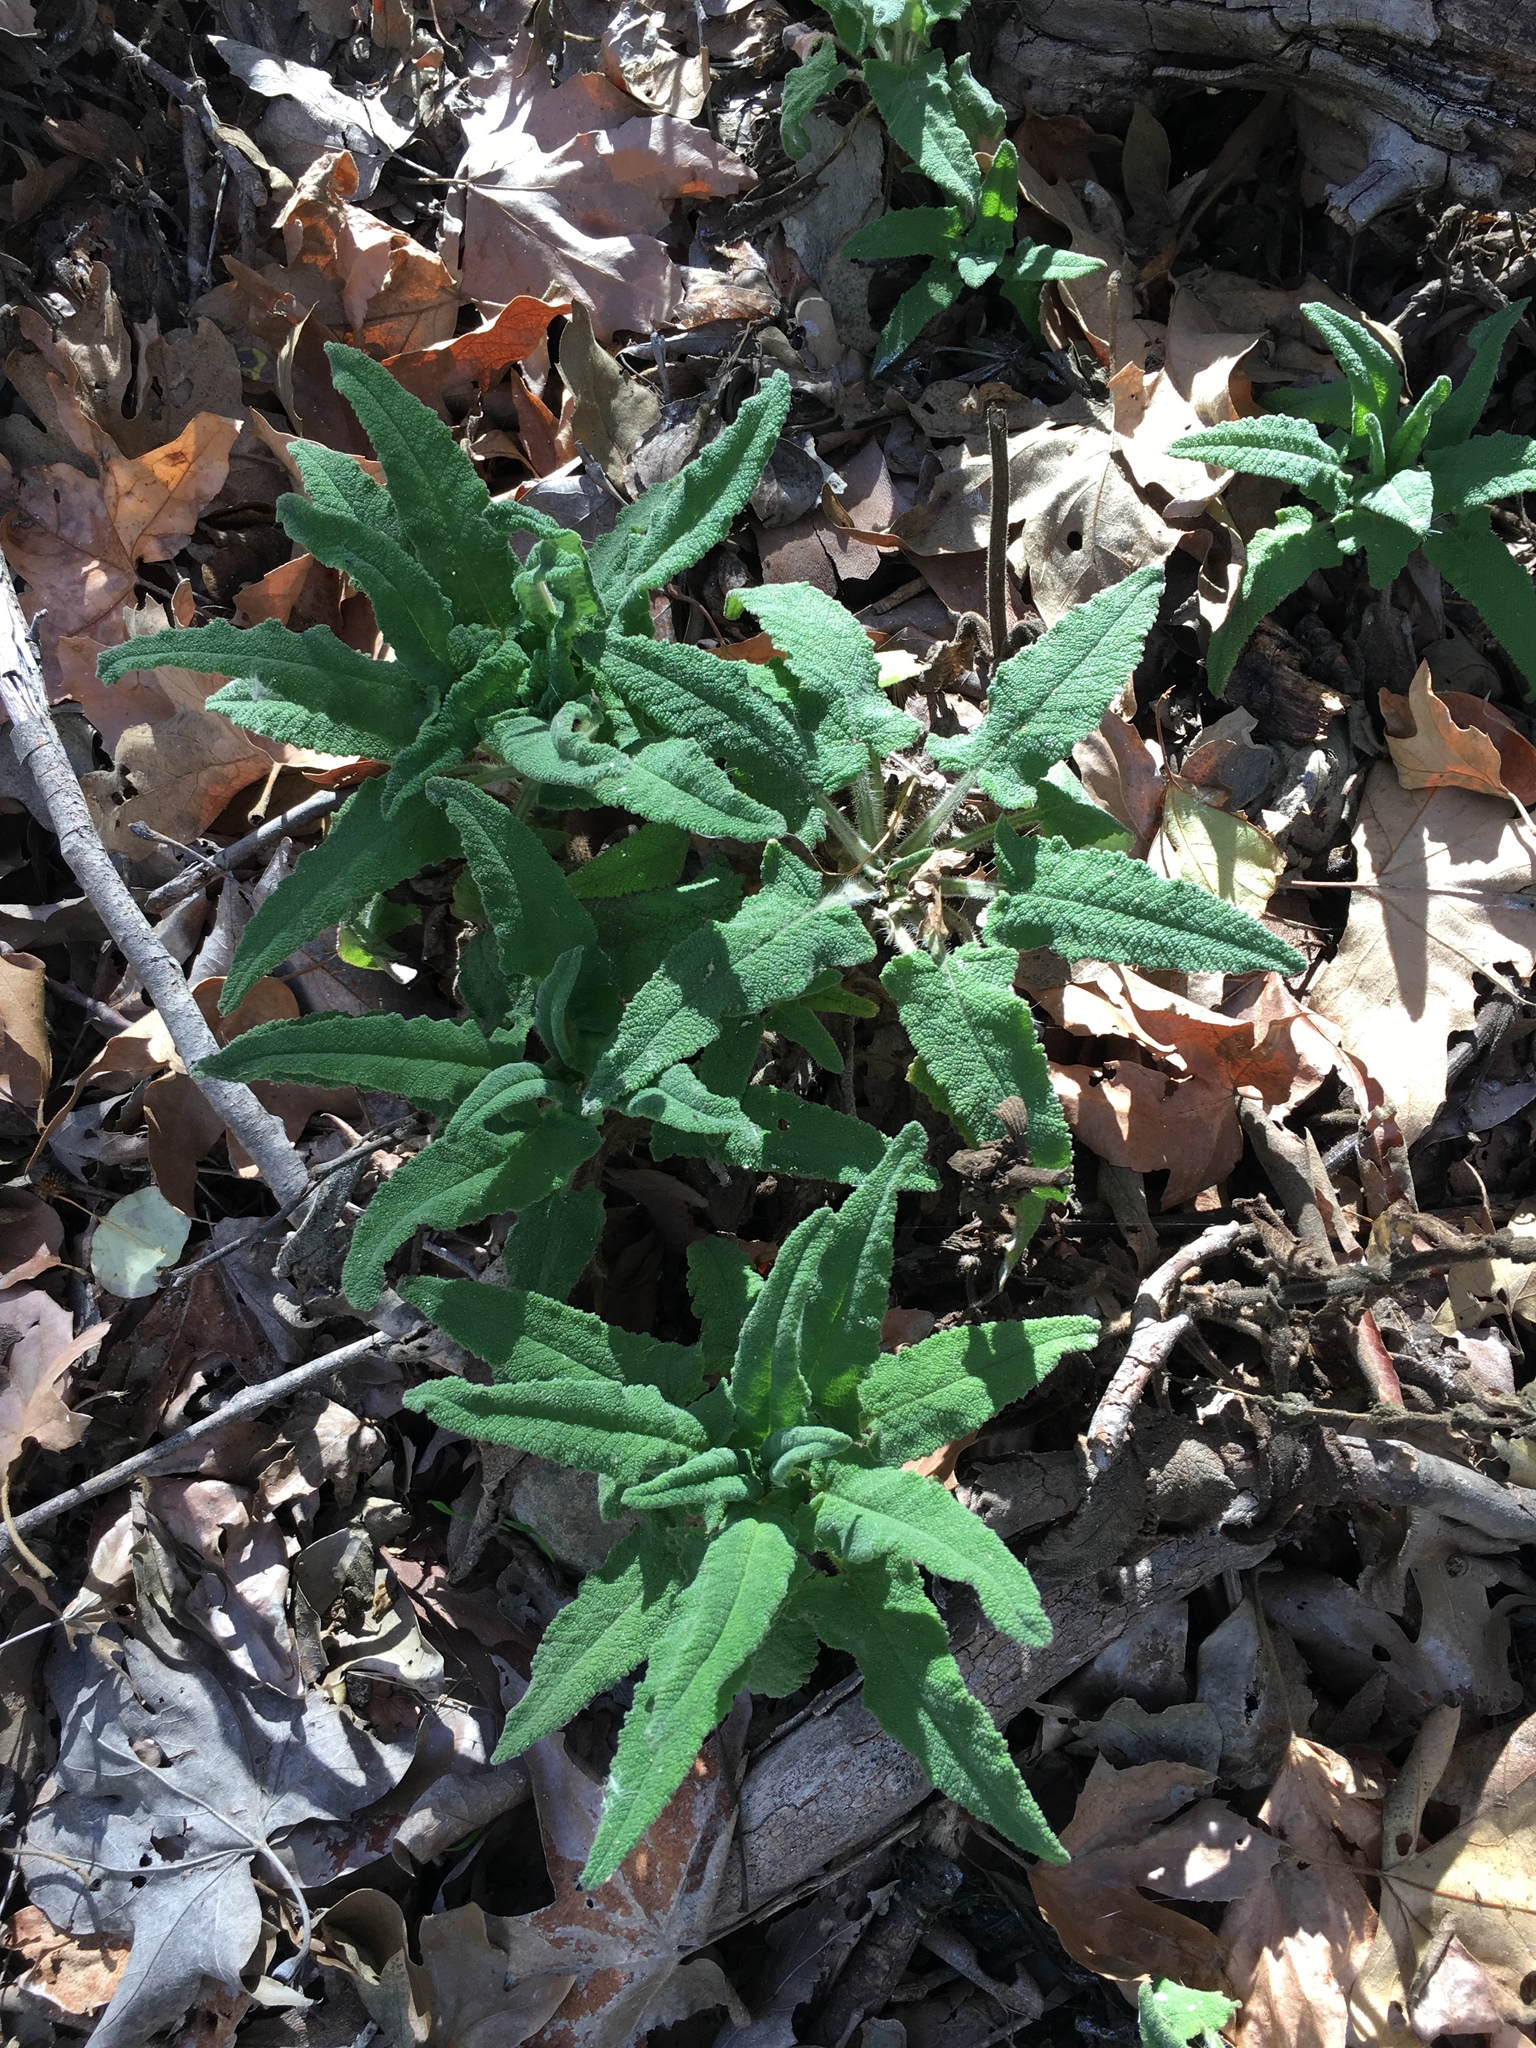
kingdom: Plantae
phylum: Tracheophyta
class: Magnoliopsida
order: Lamiales
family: Lamiaceae
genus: Salvia
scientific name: Salvia spathacea
